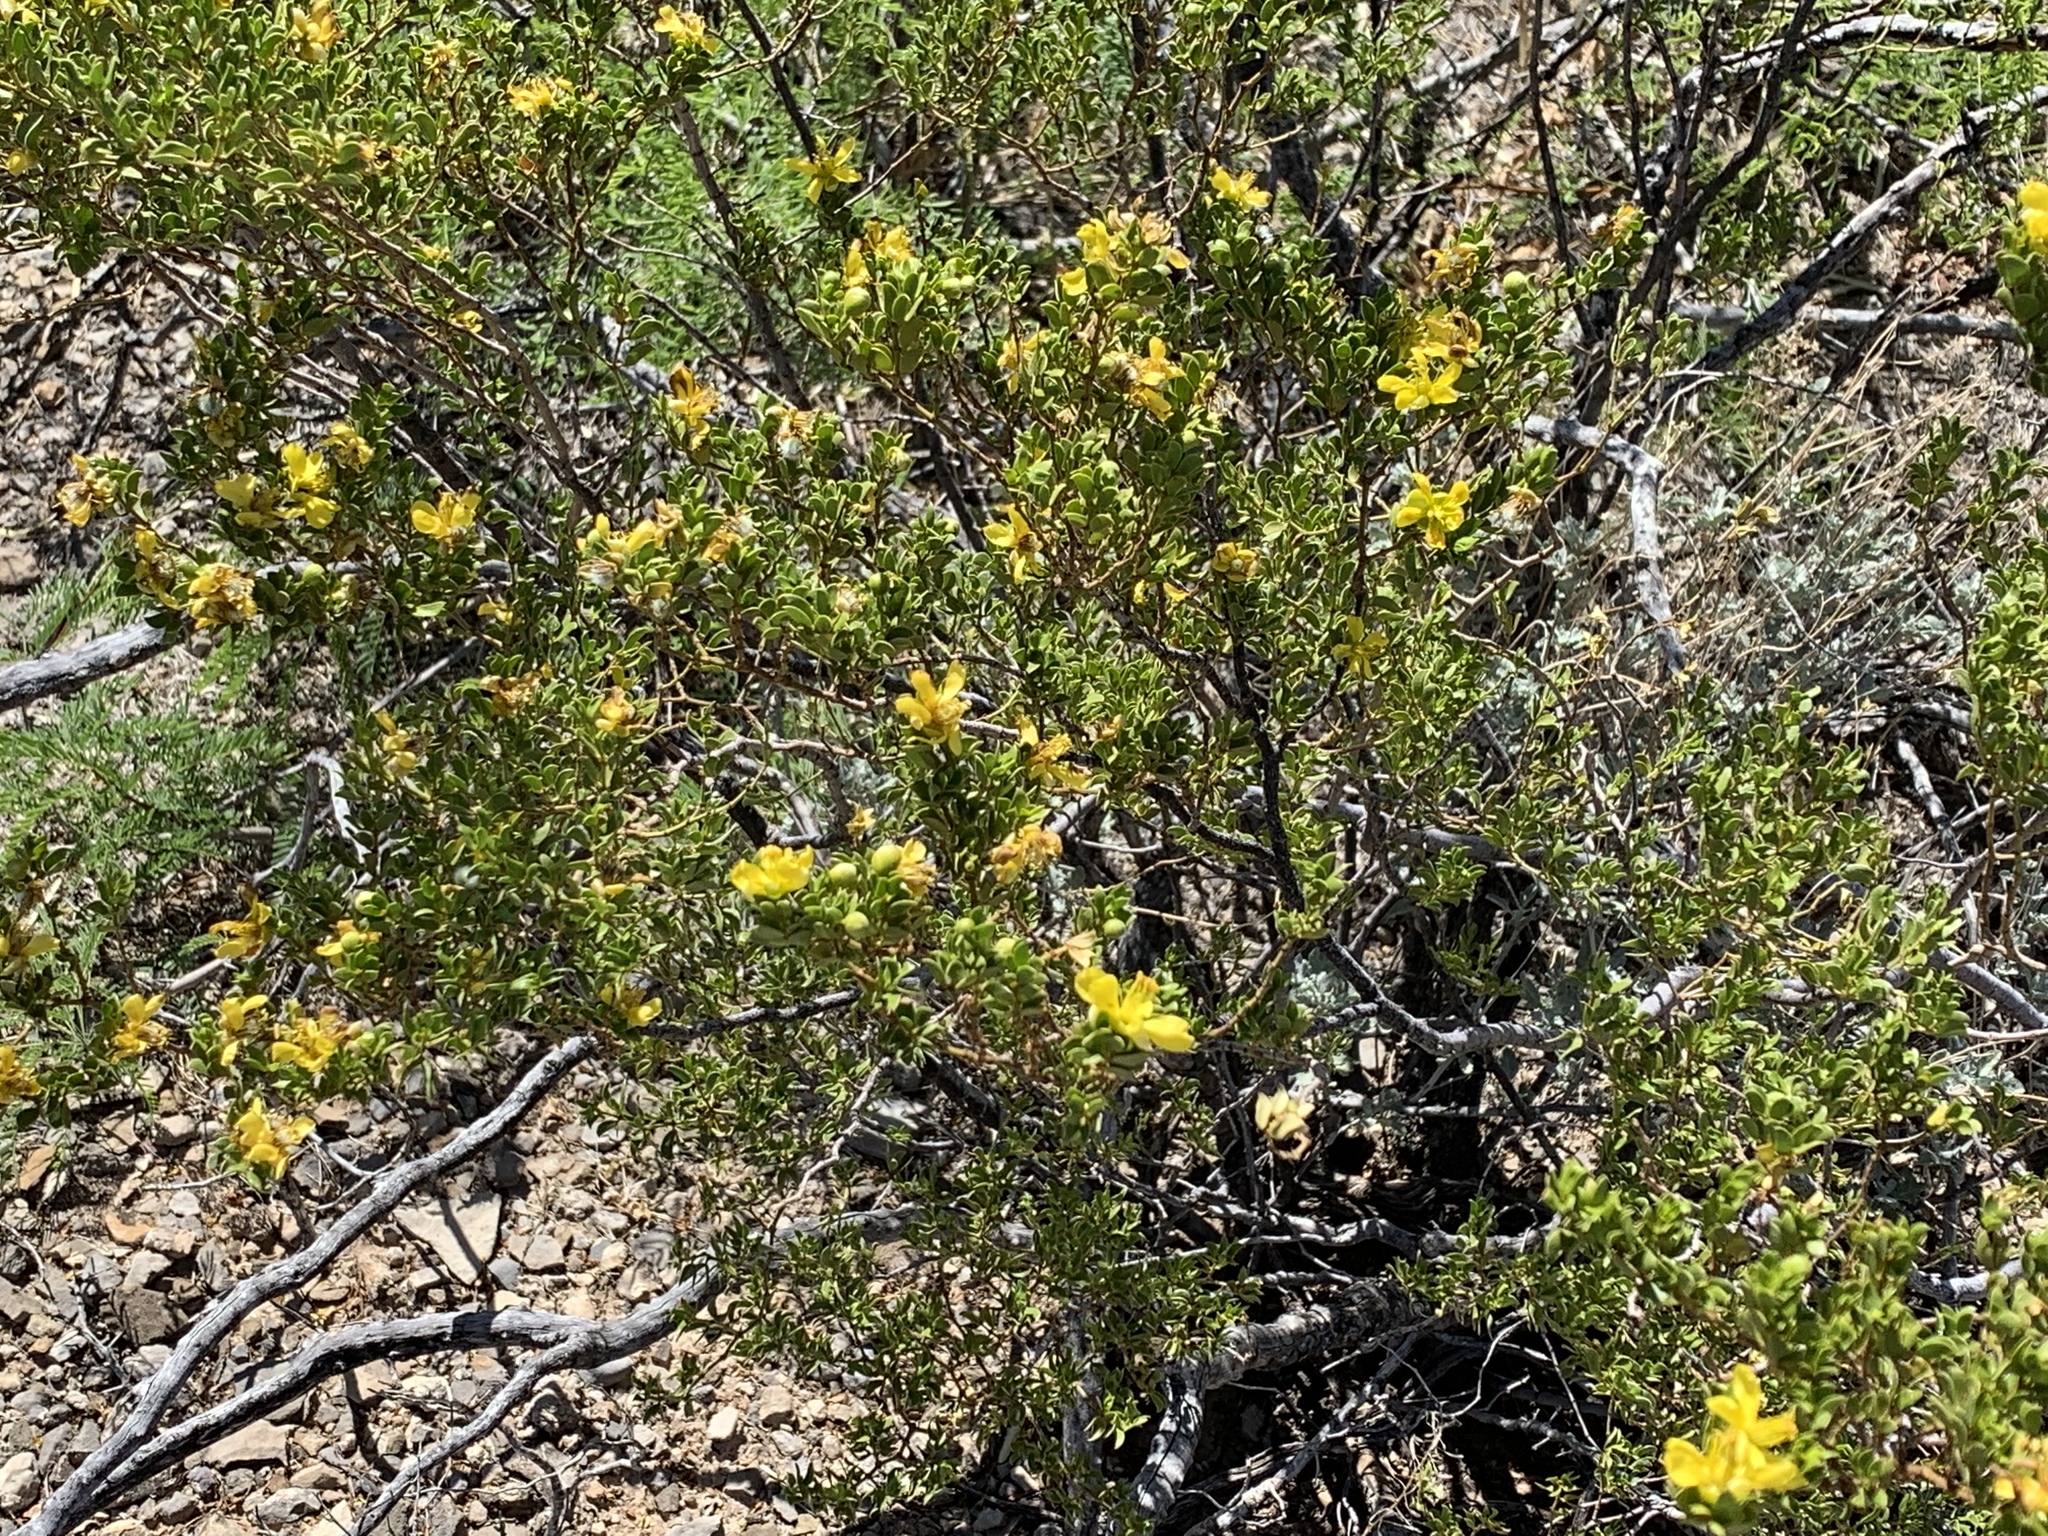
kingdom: Plantae
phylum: Tracheophyta
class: Magnoliopsida
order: Zygophyllales
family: Zygophyllaceae
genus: Larrea
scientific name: Larrea tridentata
